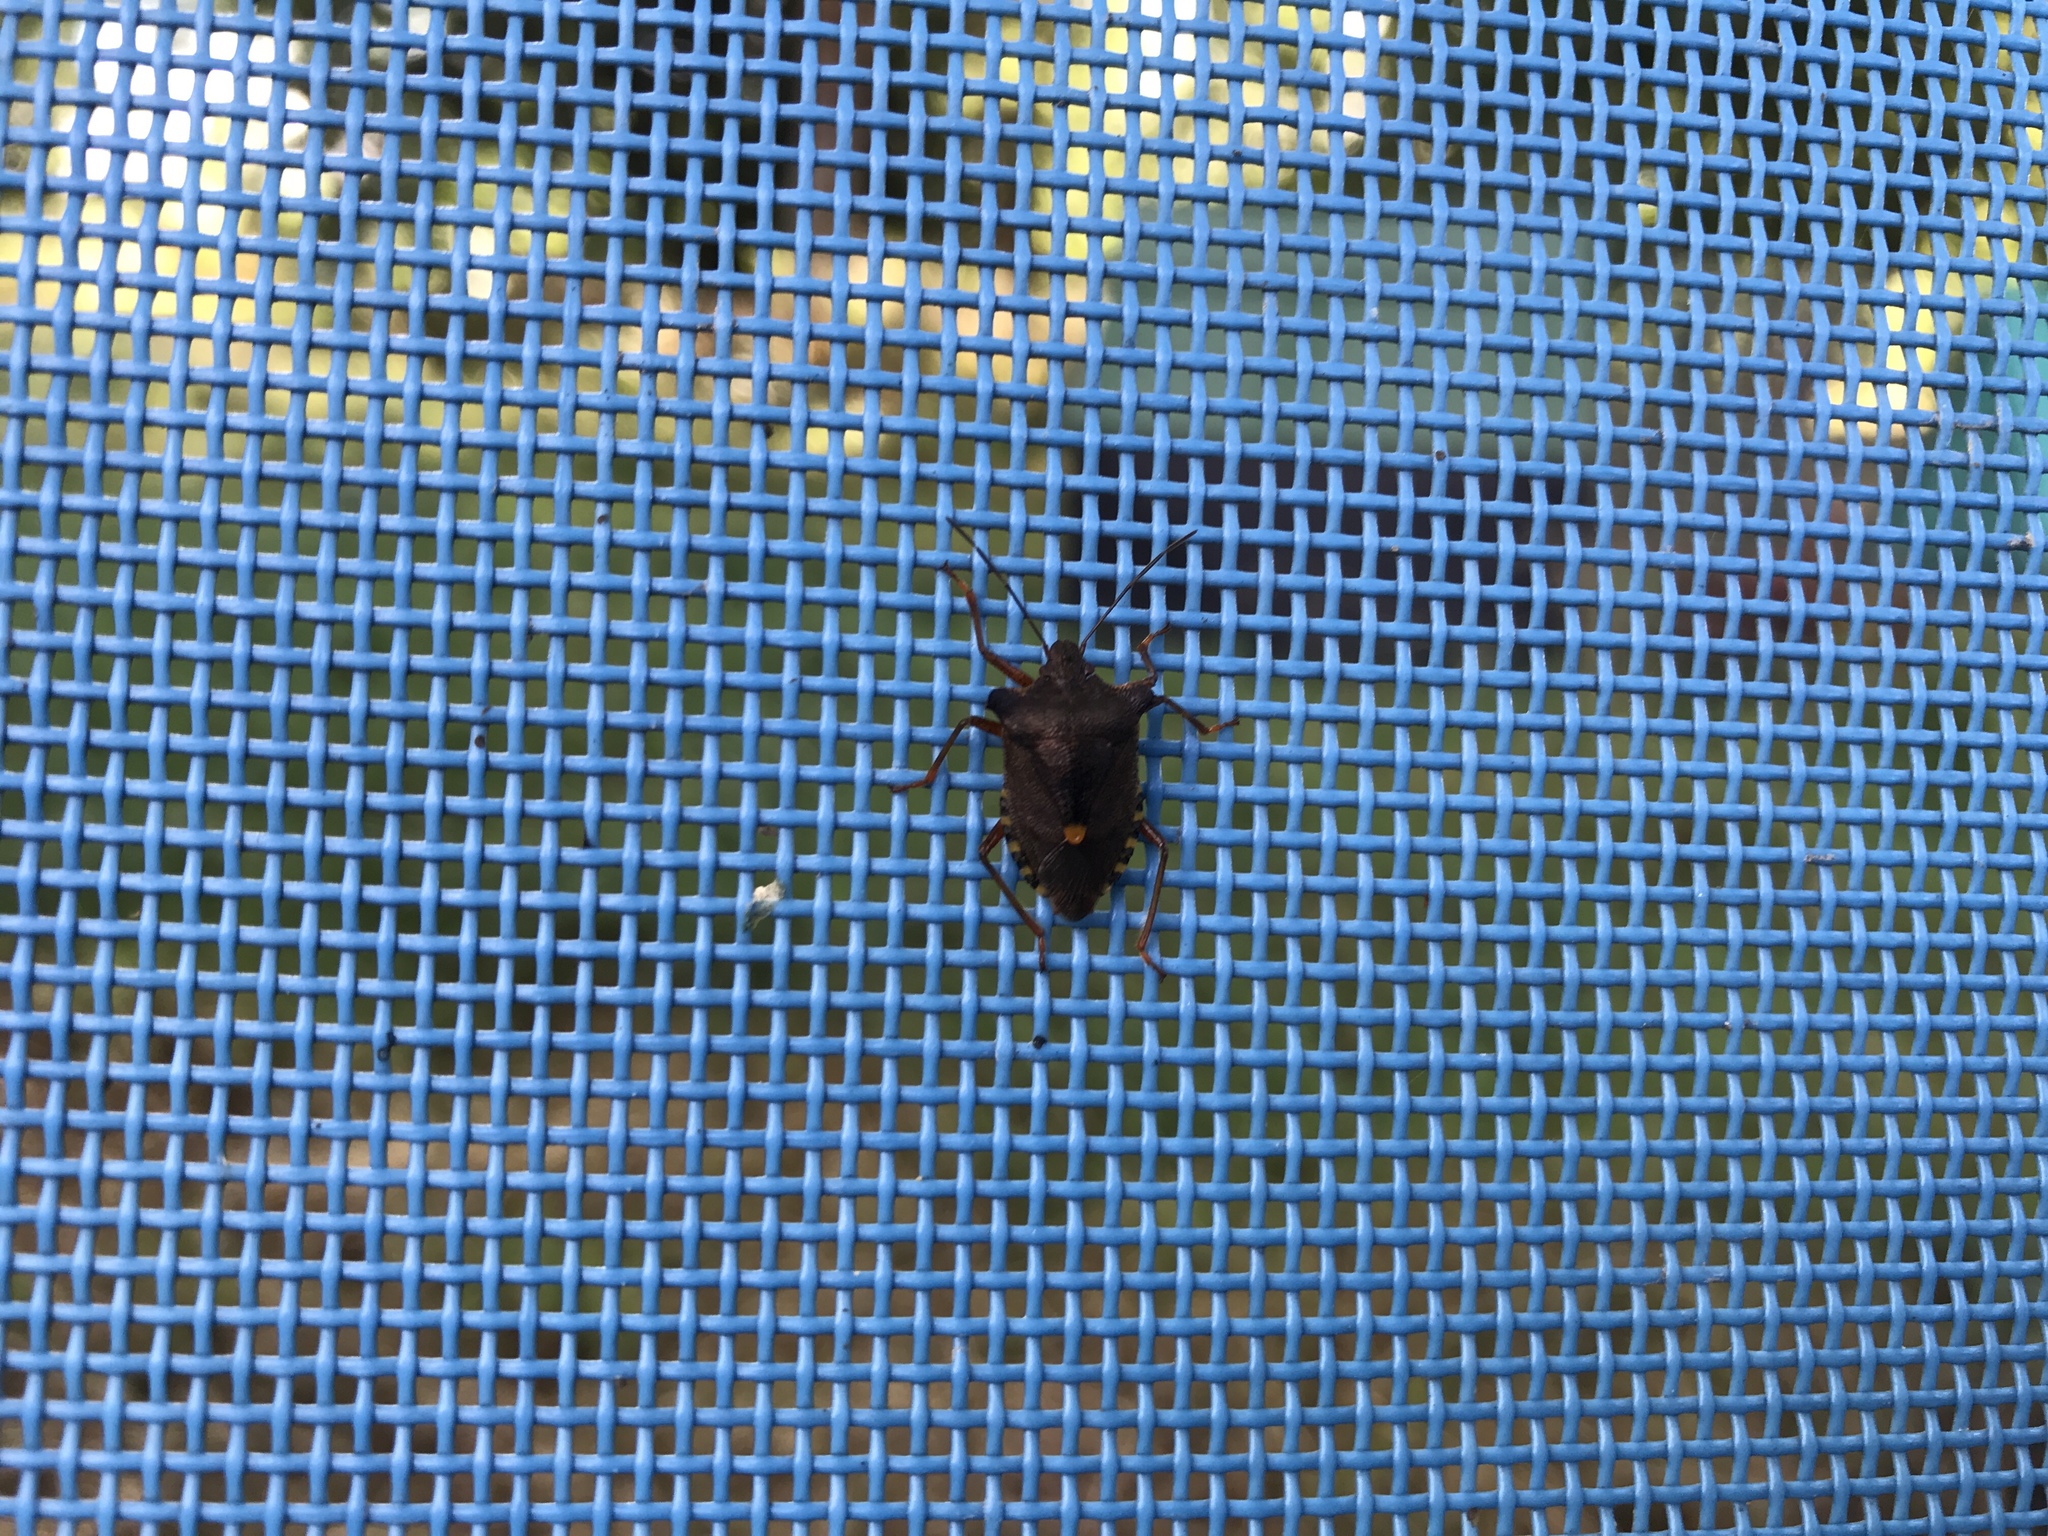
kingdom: Animalia
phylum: Arthropoda
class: Insecta
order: Hemiptera
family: Pentatomidae
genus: Pentatoma
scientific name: Pentatoma rufipes
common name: Forest bug
